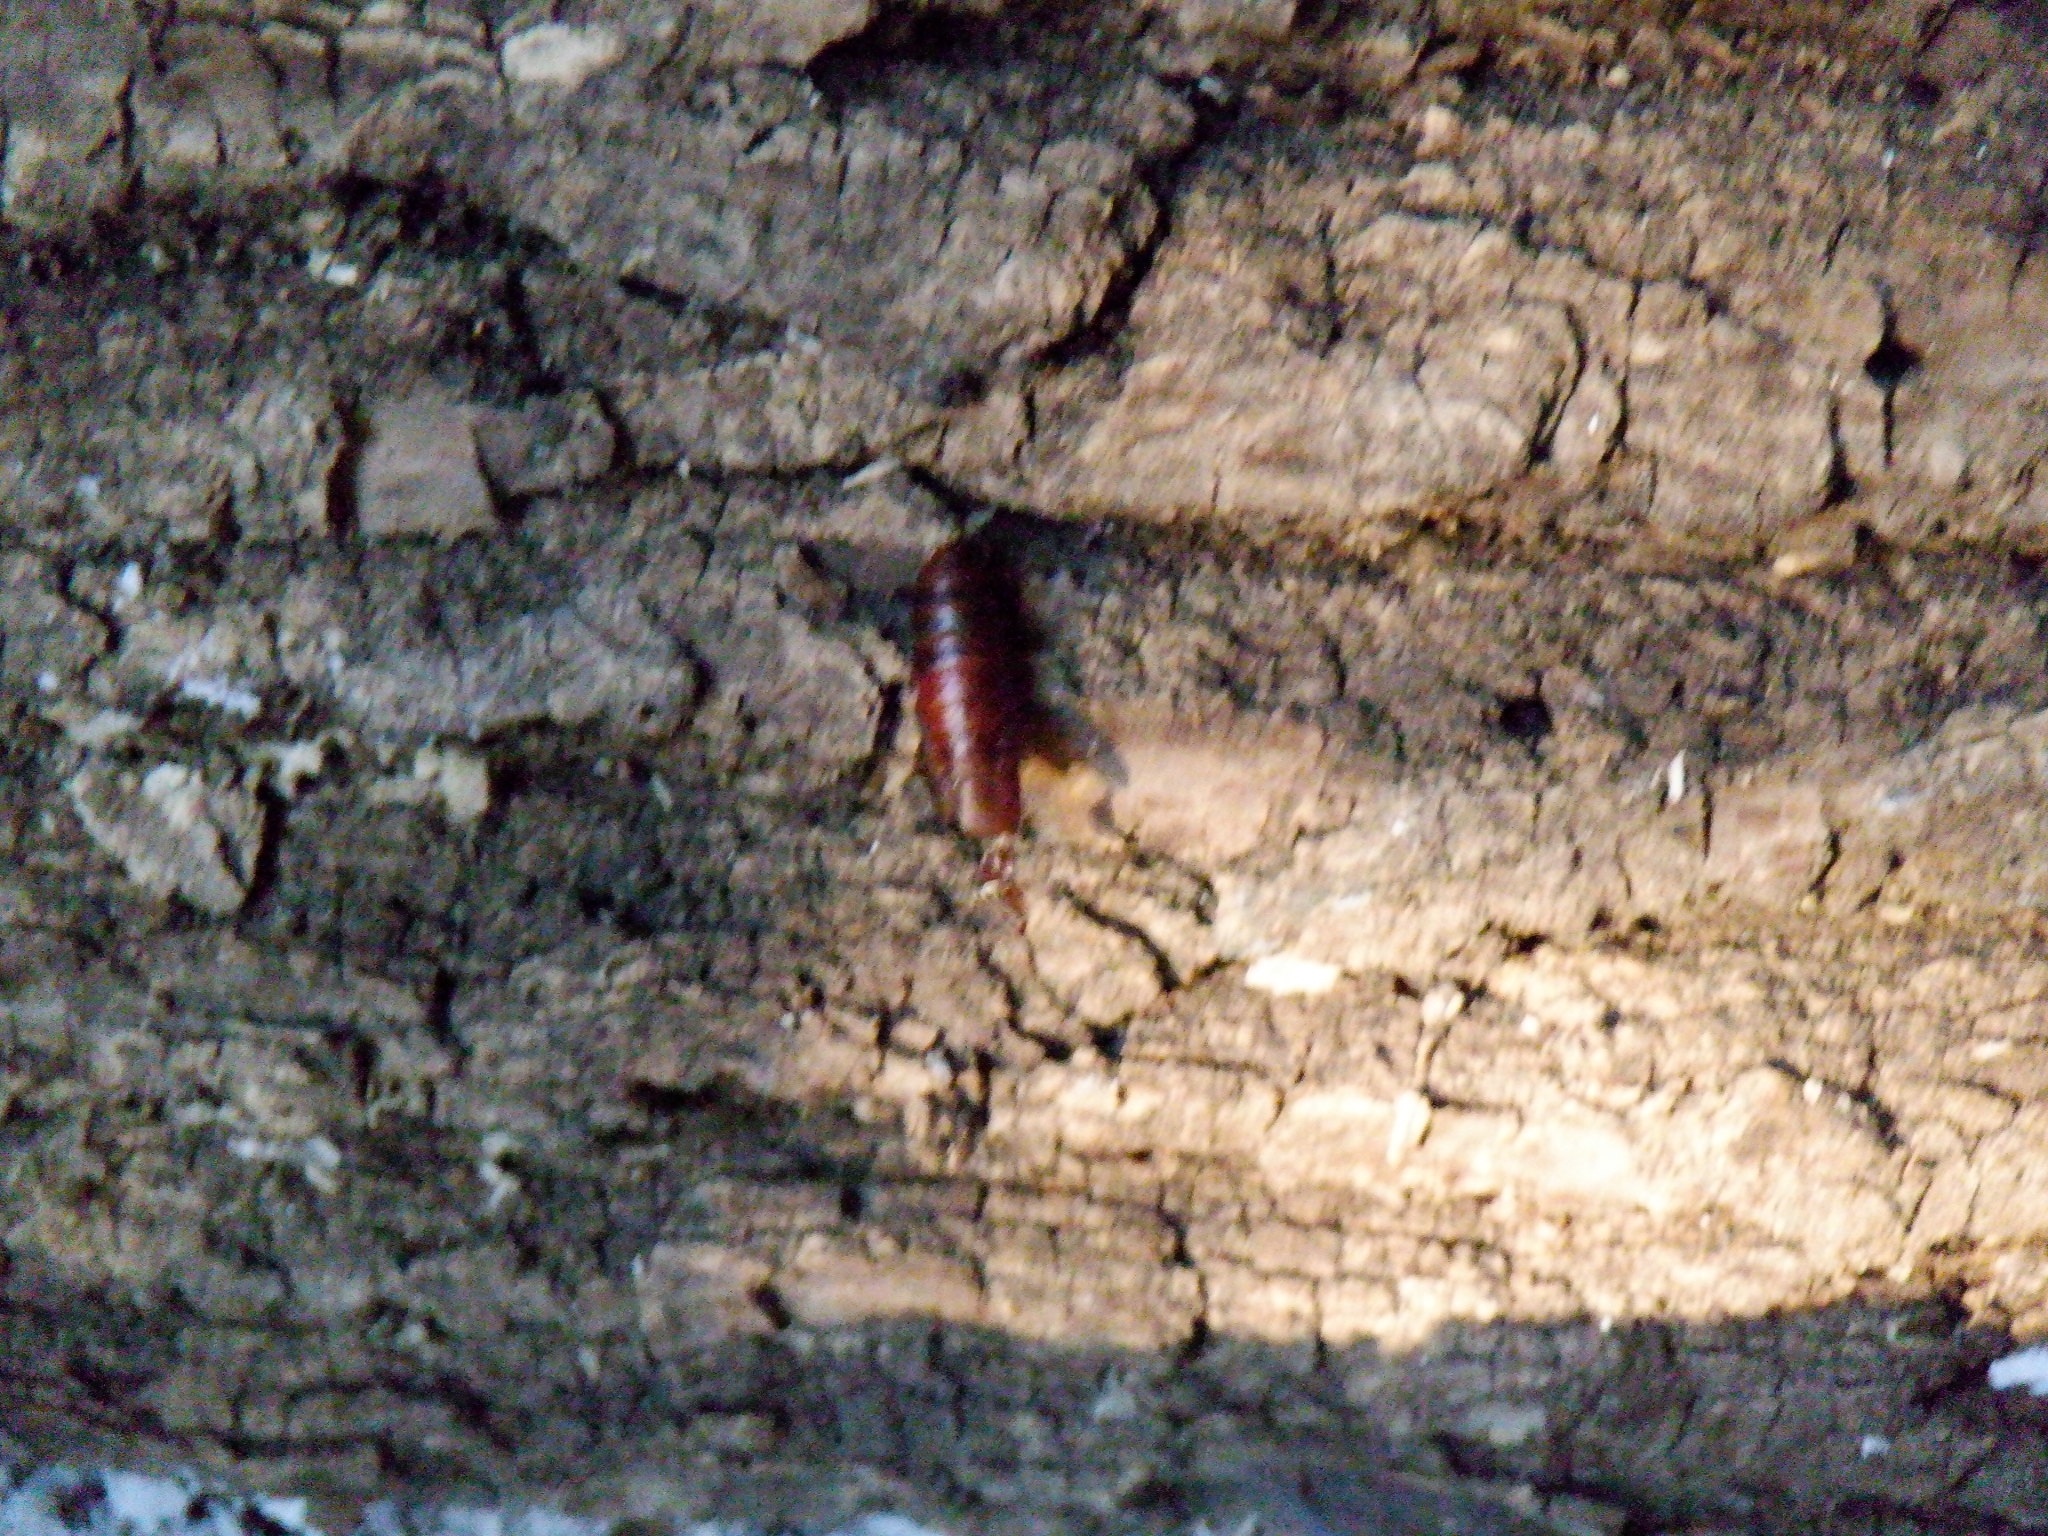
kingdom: Animalia
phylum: Arthropoda
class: Insecta
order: Lepidoptera
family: Erebidae
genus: Lymantria
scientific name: Lymantria dispar
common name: Gypsy moth
